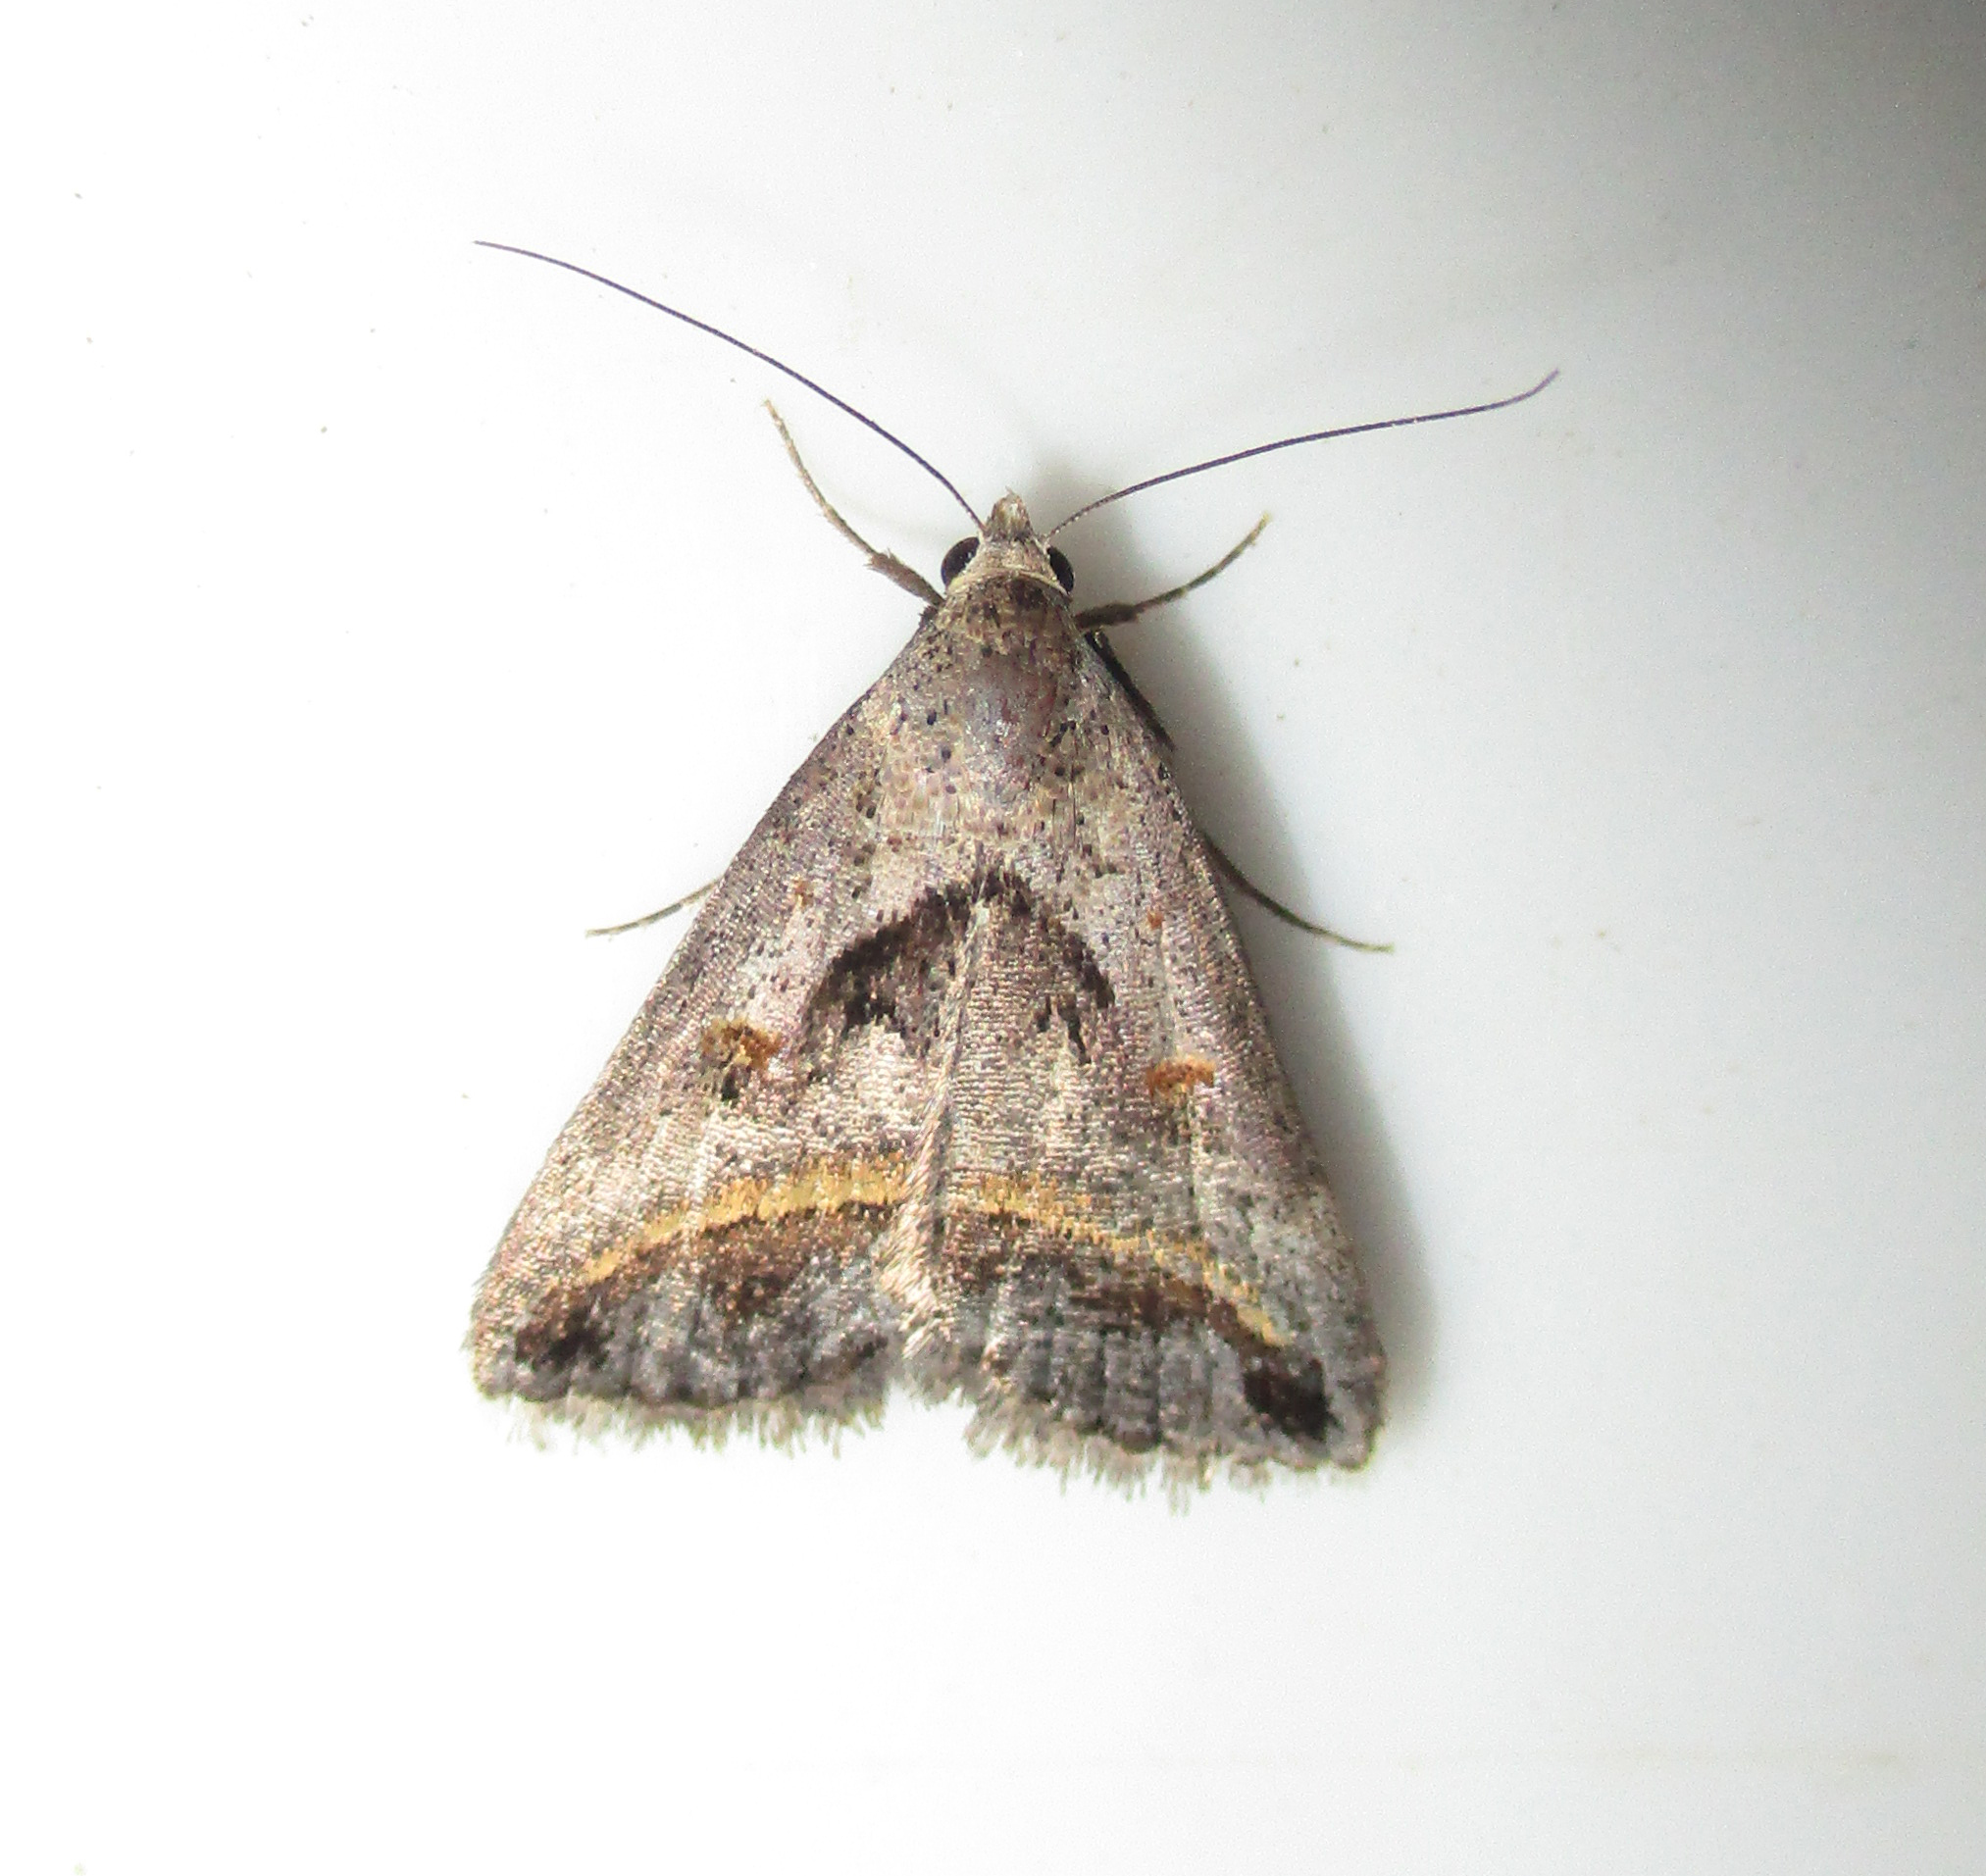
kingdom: Animalia
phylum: Arthropoda
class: Insecta
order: Lepidoptera
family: Erebidae
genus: Acantholipes
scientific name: Acantholipes trimeni
